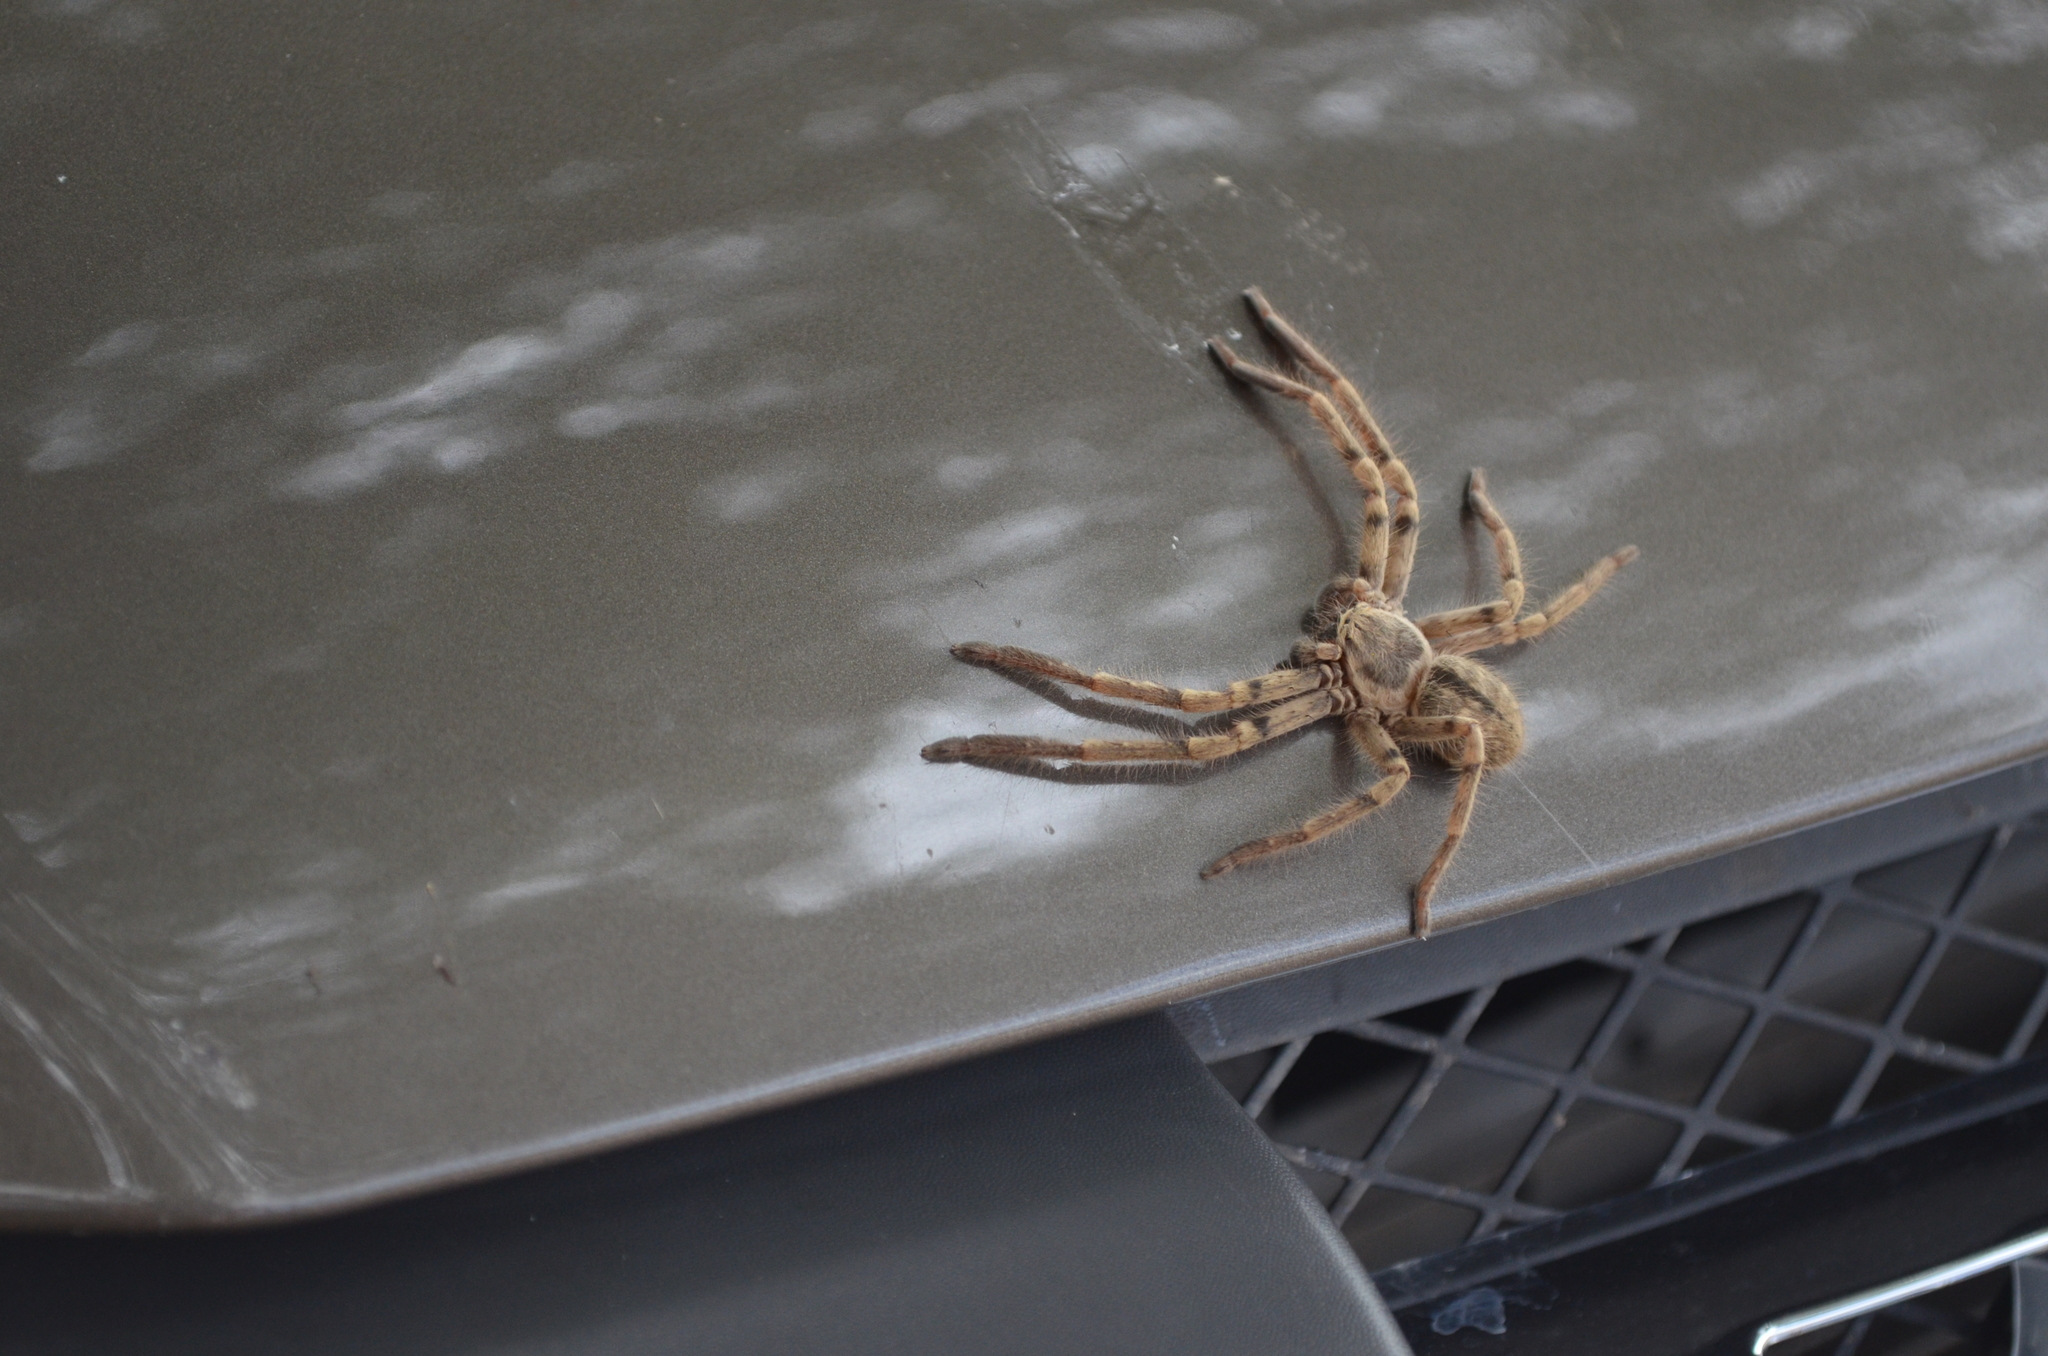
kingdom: Animalia
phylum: Arthropoda
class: Arachnida
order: Araneae
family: Sparassidae
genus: Polybetes
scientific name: Polybetes pythagoricus
